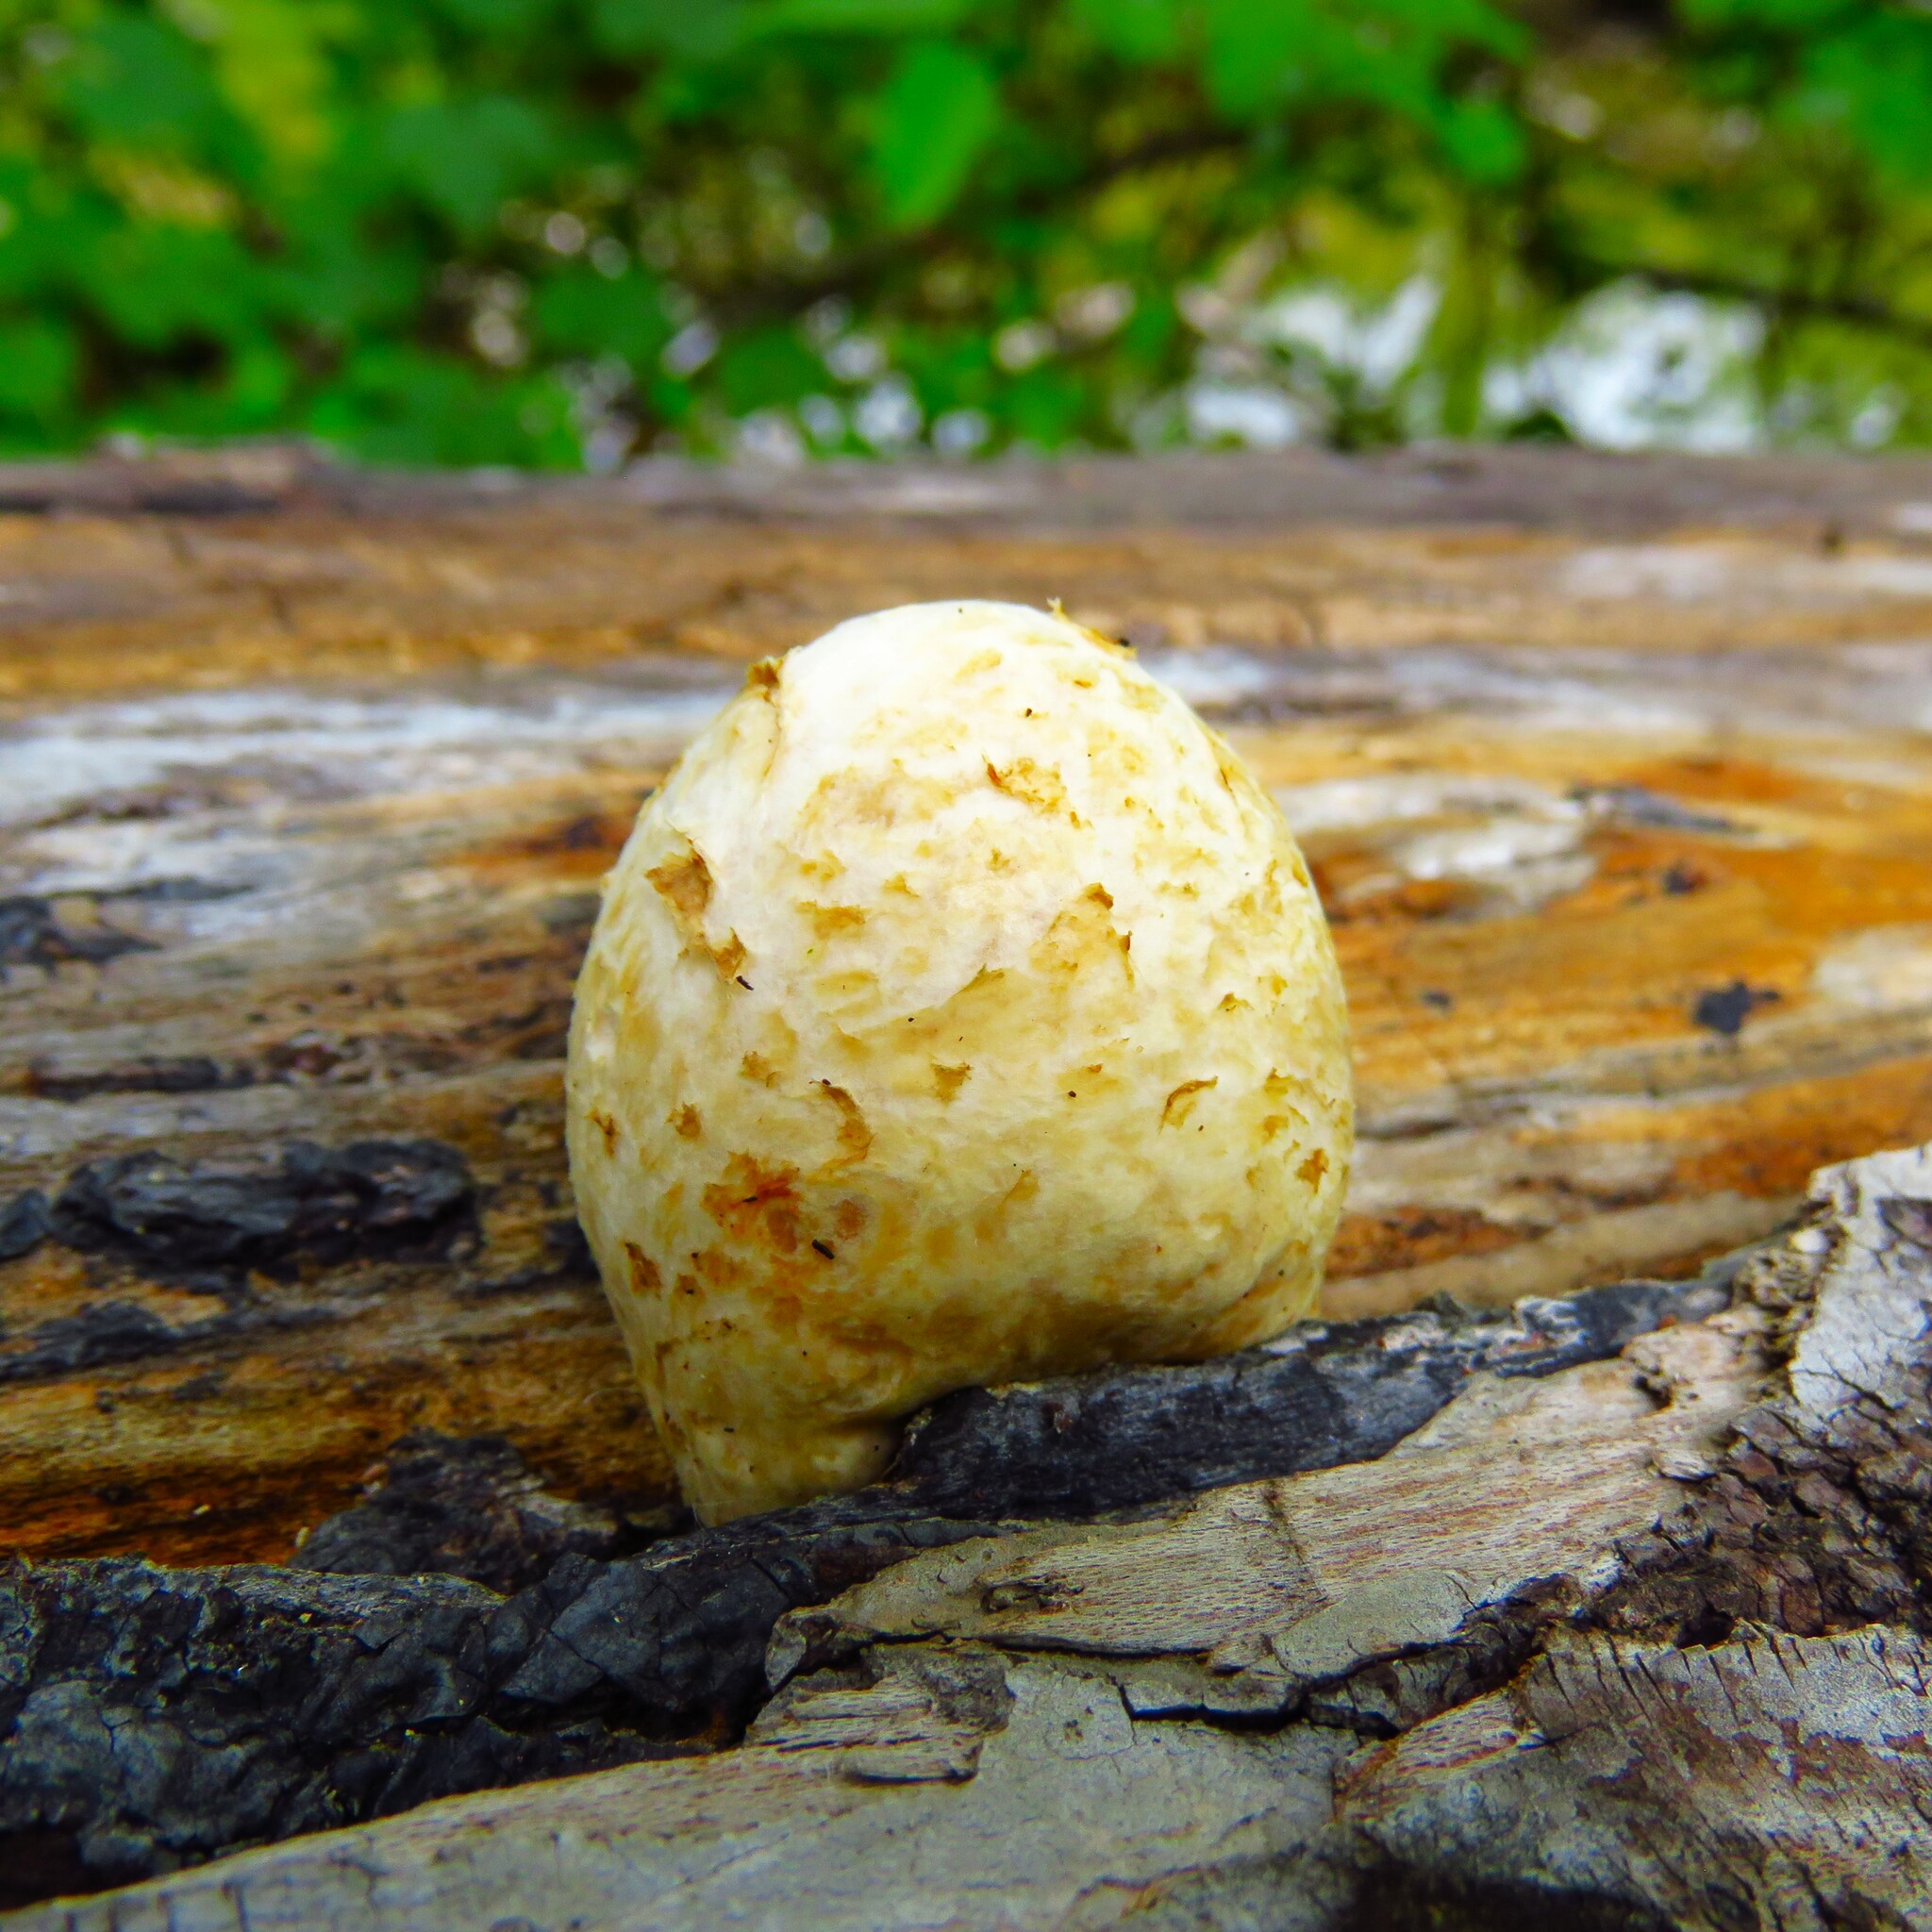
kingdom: Fungi
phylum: Basidiomycota
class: Agaricomycetes
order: Agaricales
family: Pluteaceae
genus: Volvariella
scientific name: Volvariella bombycina
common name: Silky rosegill
